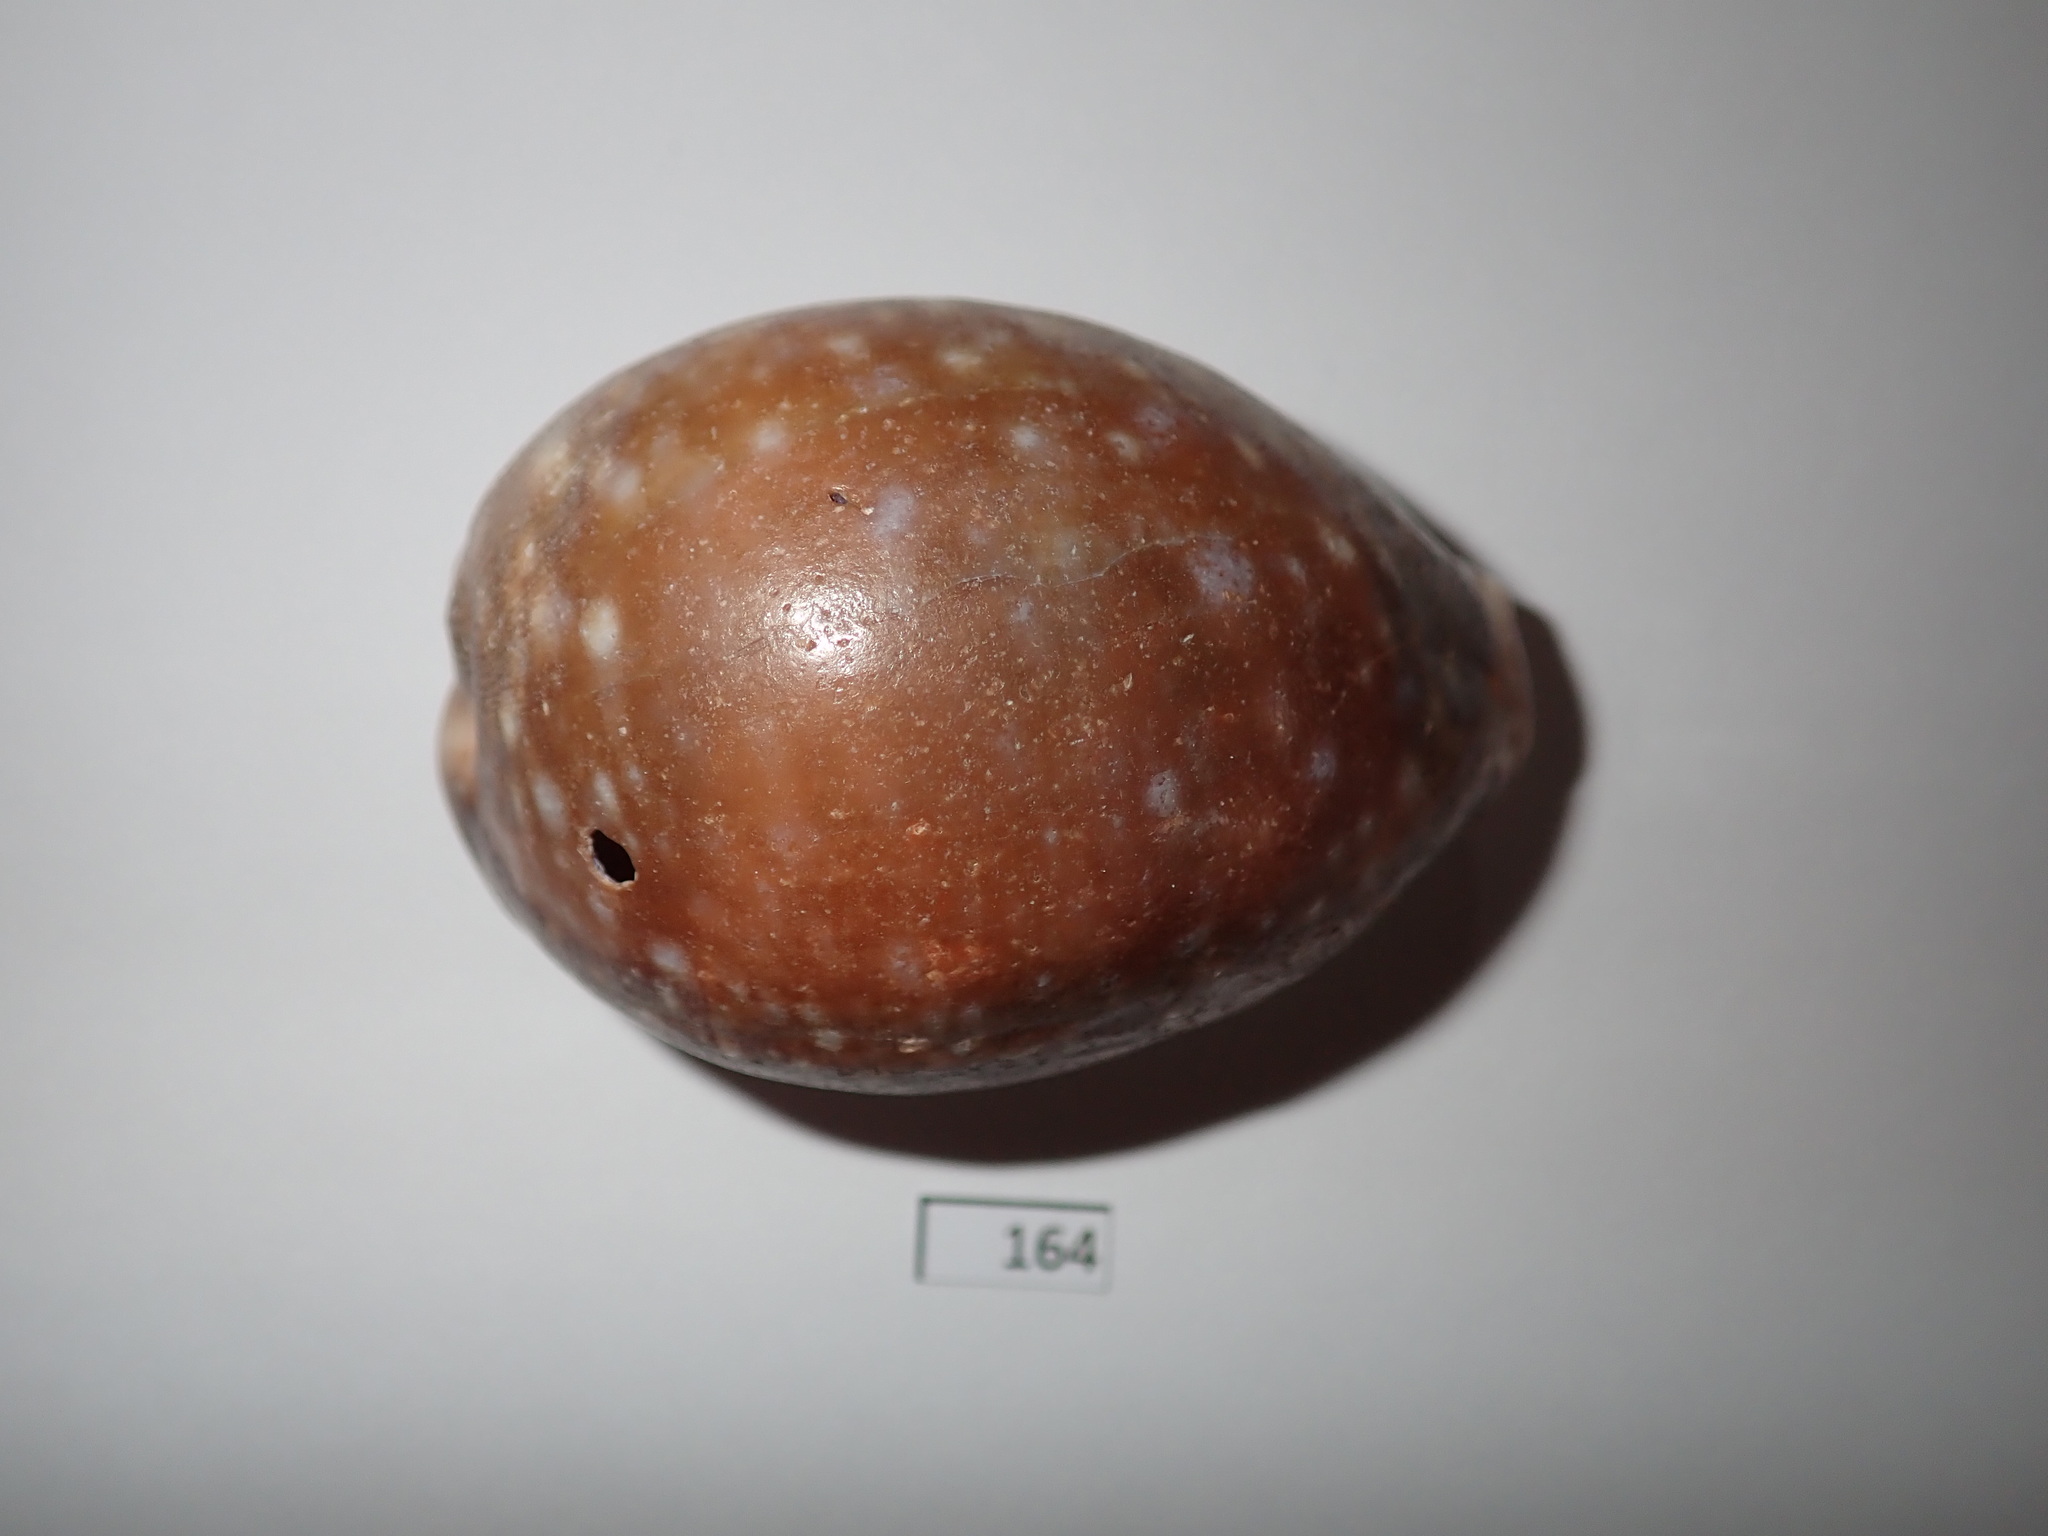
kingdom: Animalia
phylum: Mollusca
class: Gastropoda
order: Littorinimorpha
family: Cypraeidae
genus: Lyncina
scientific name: Lyncina vitellus
